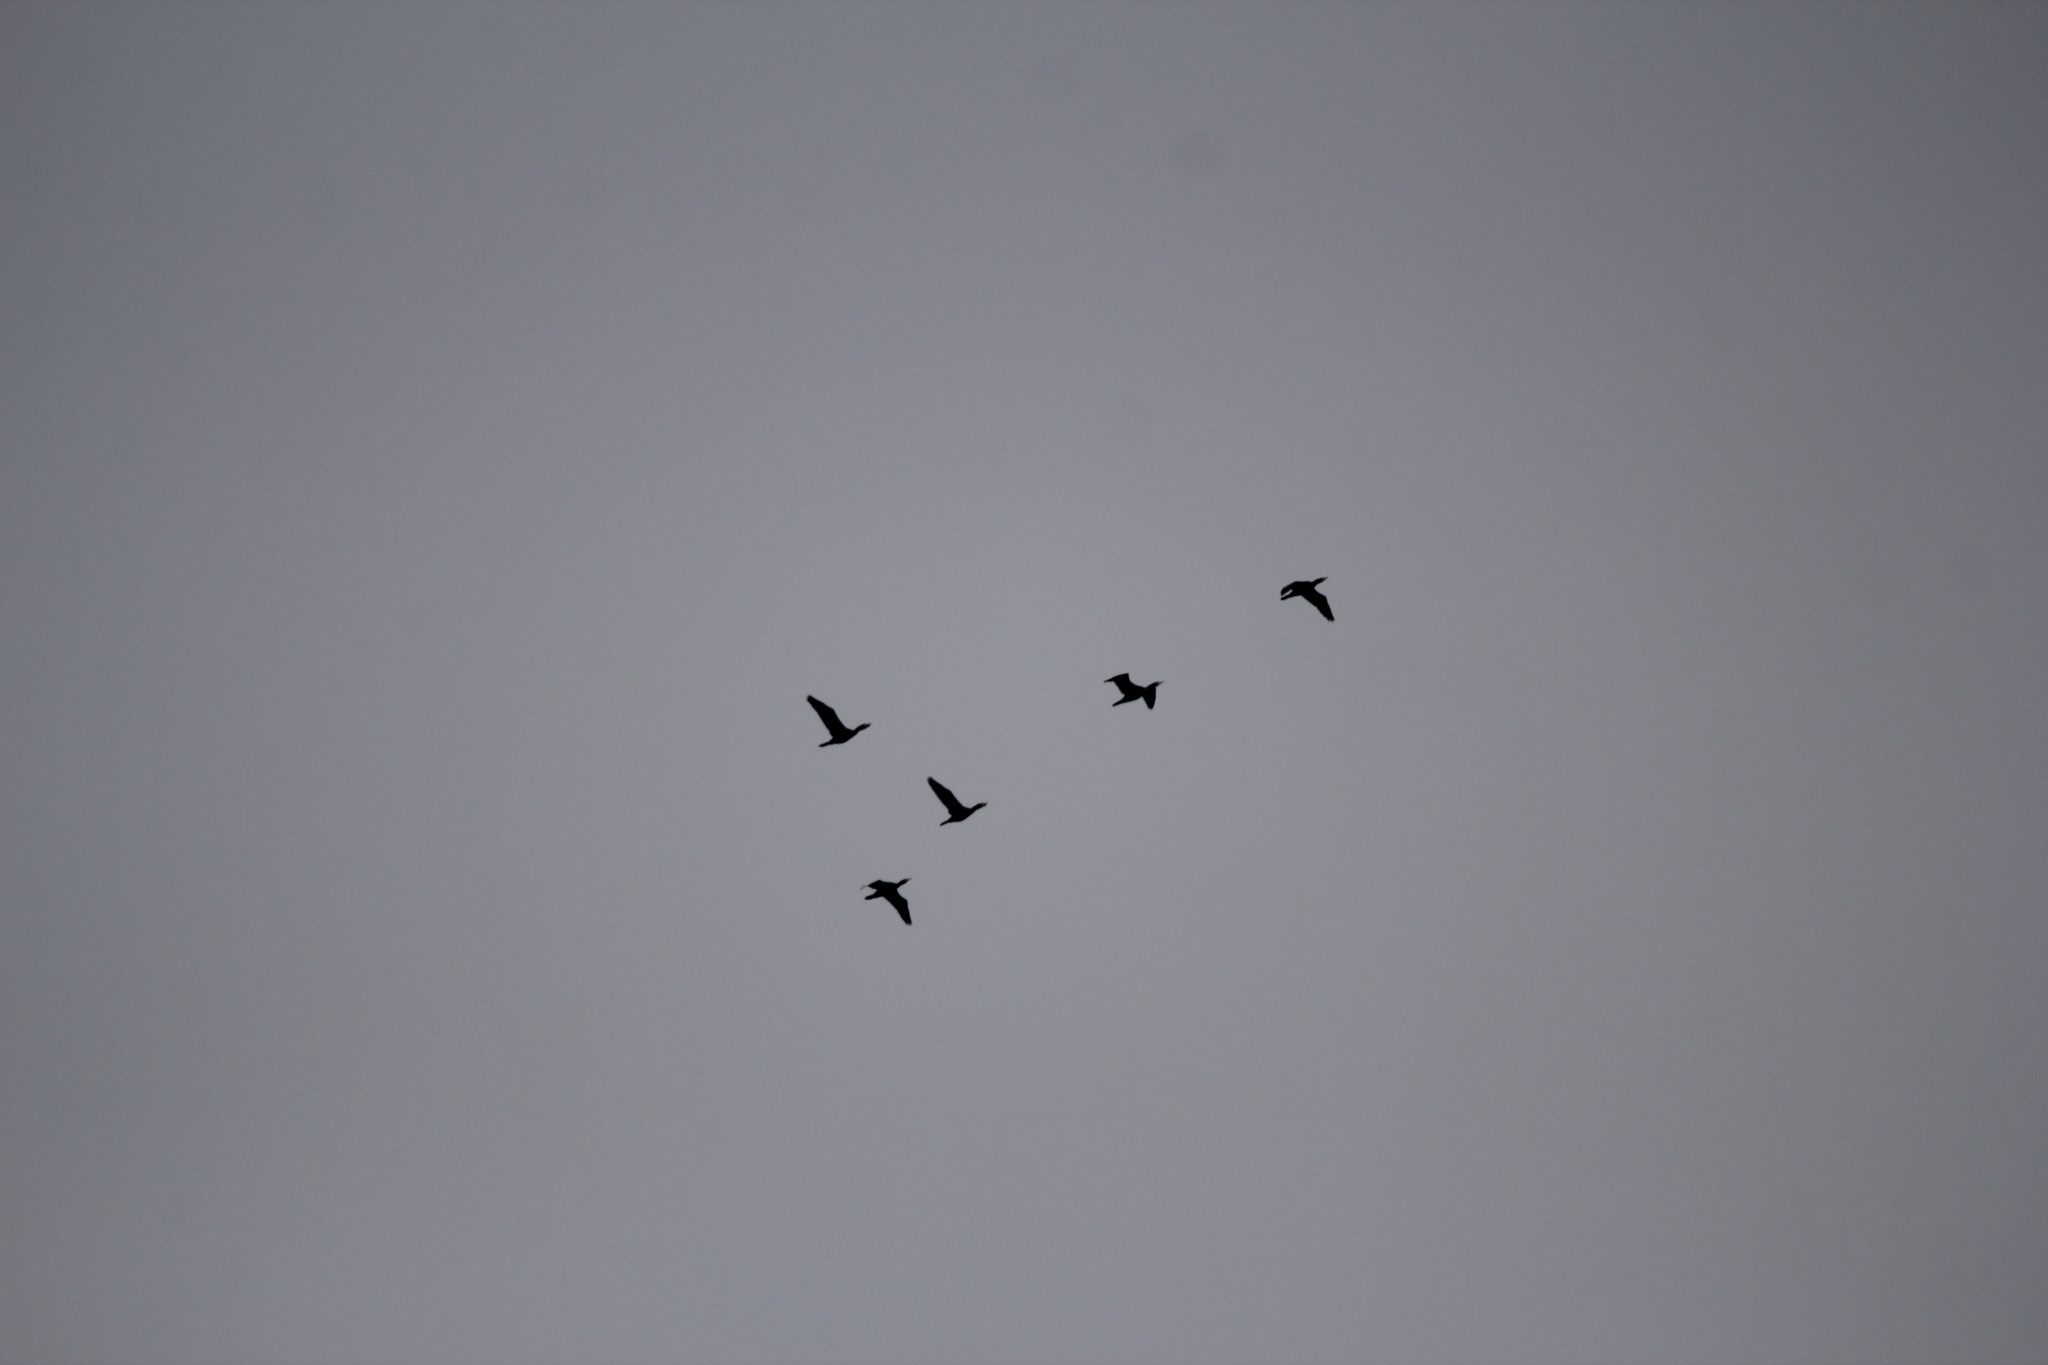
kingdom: Animalia
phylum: Chordata
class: Aves
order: Suliformes
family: Phalacrocoracidae
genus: Phalacrocorax
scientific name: Phalacrocorax auritus
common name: Double-crested cormorant
